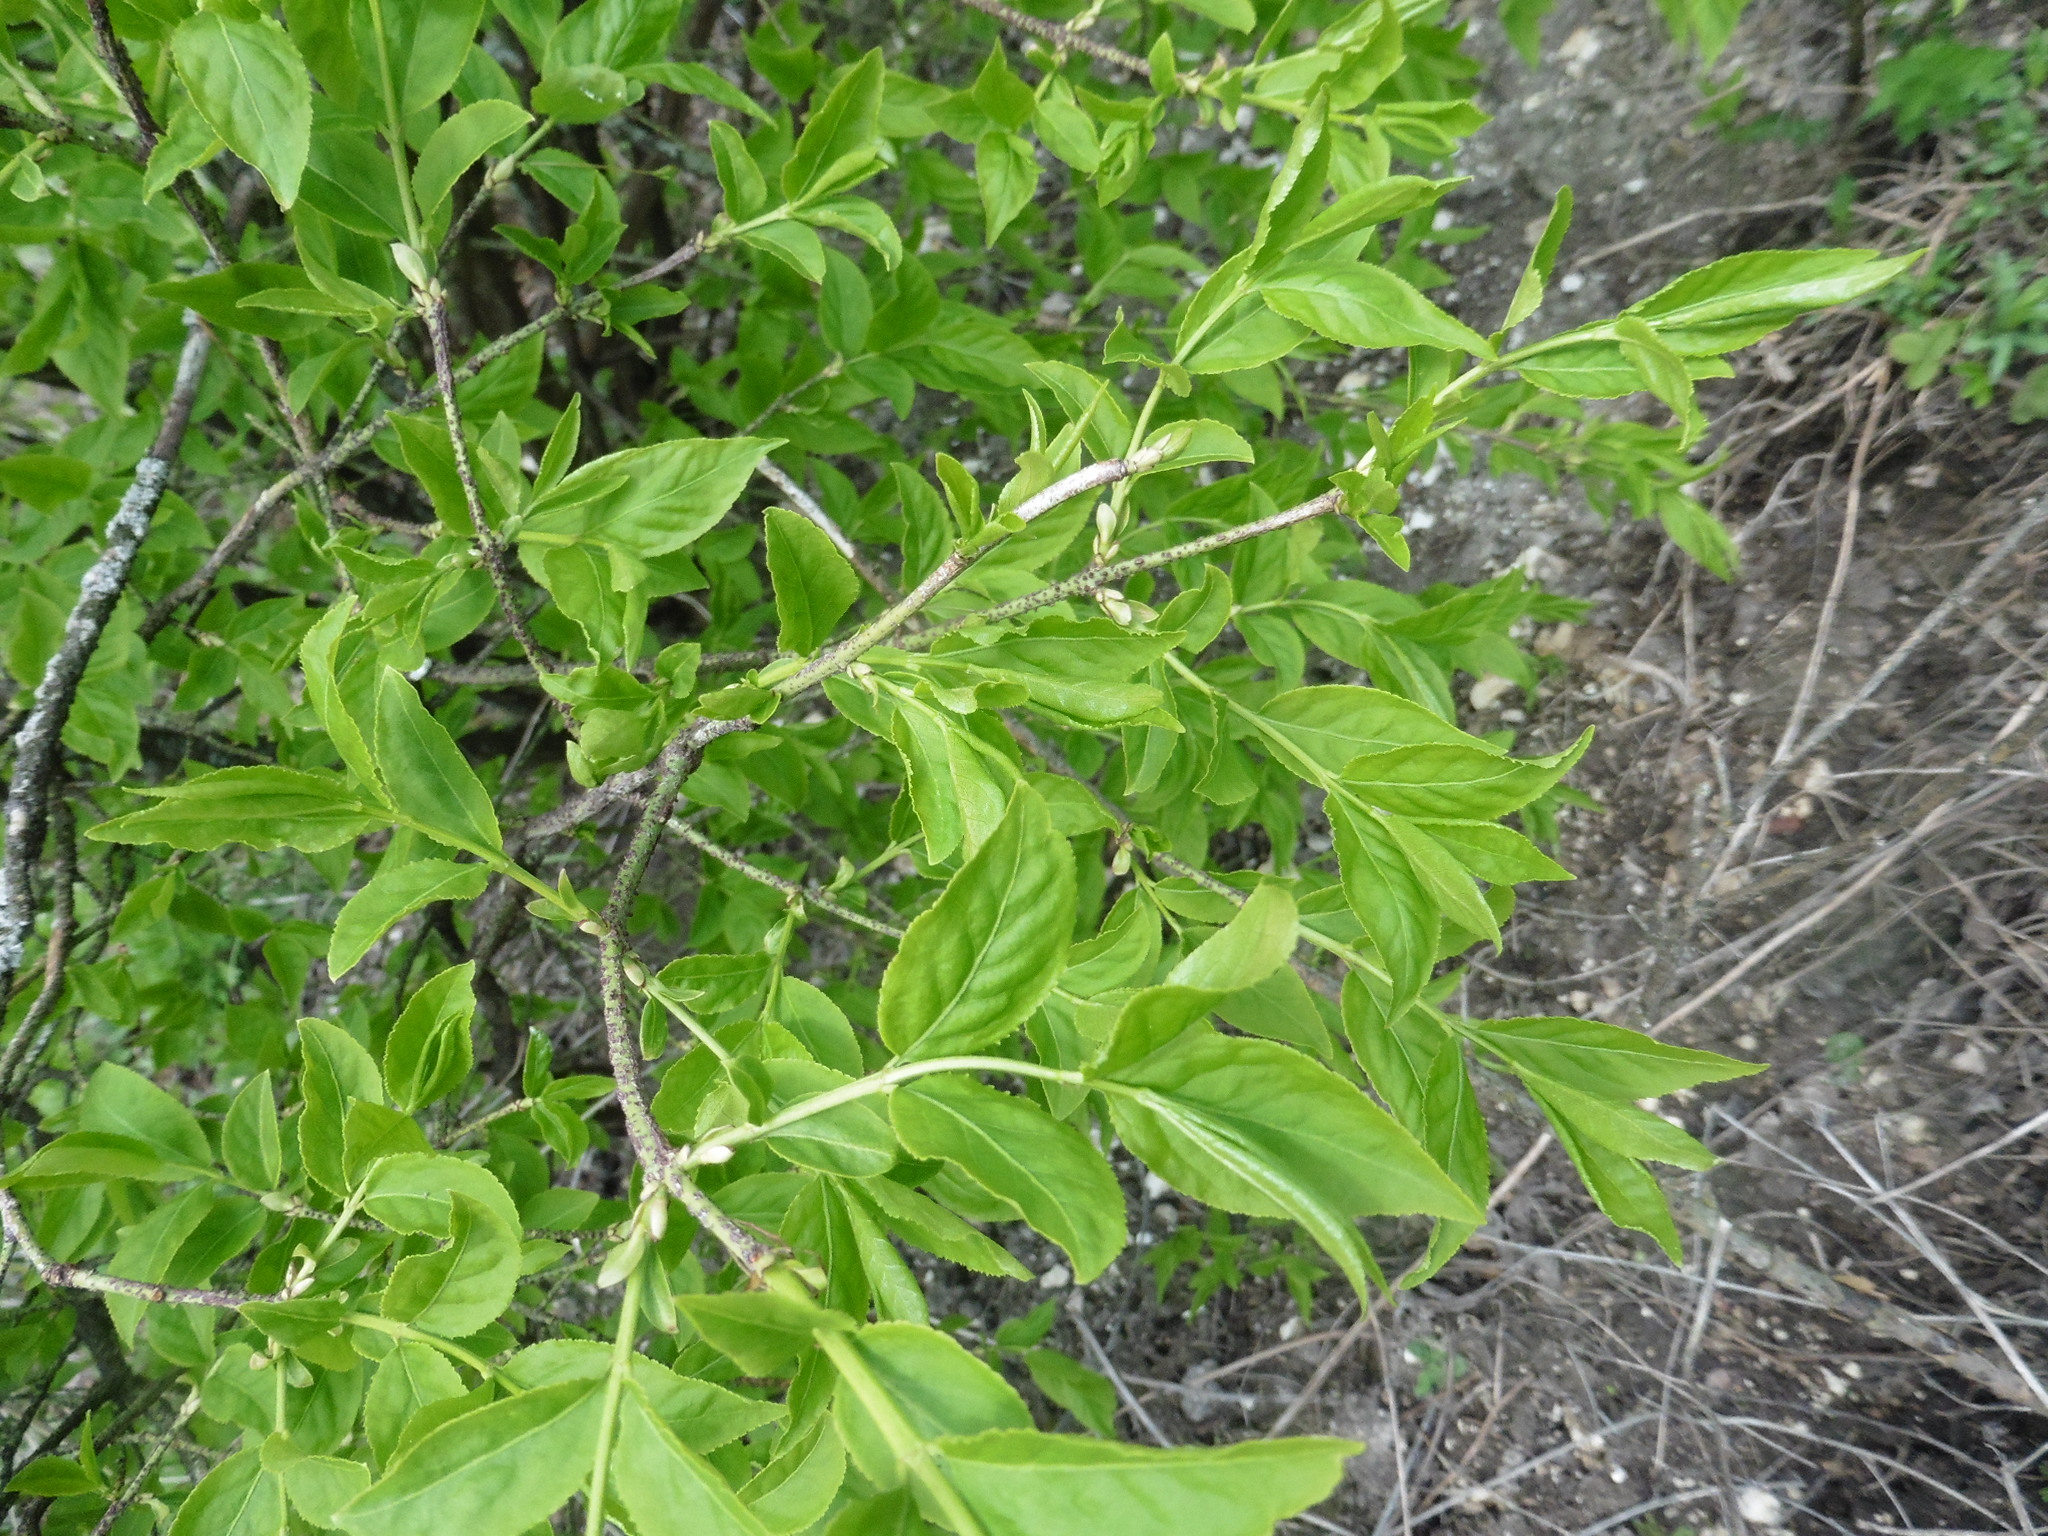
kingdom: Plantae
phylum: Tracheophyta
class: Magnoliopsida
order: Celastrales
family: Celastraceae
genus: Euonymus
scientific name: Euonymus verrucosus
